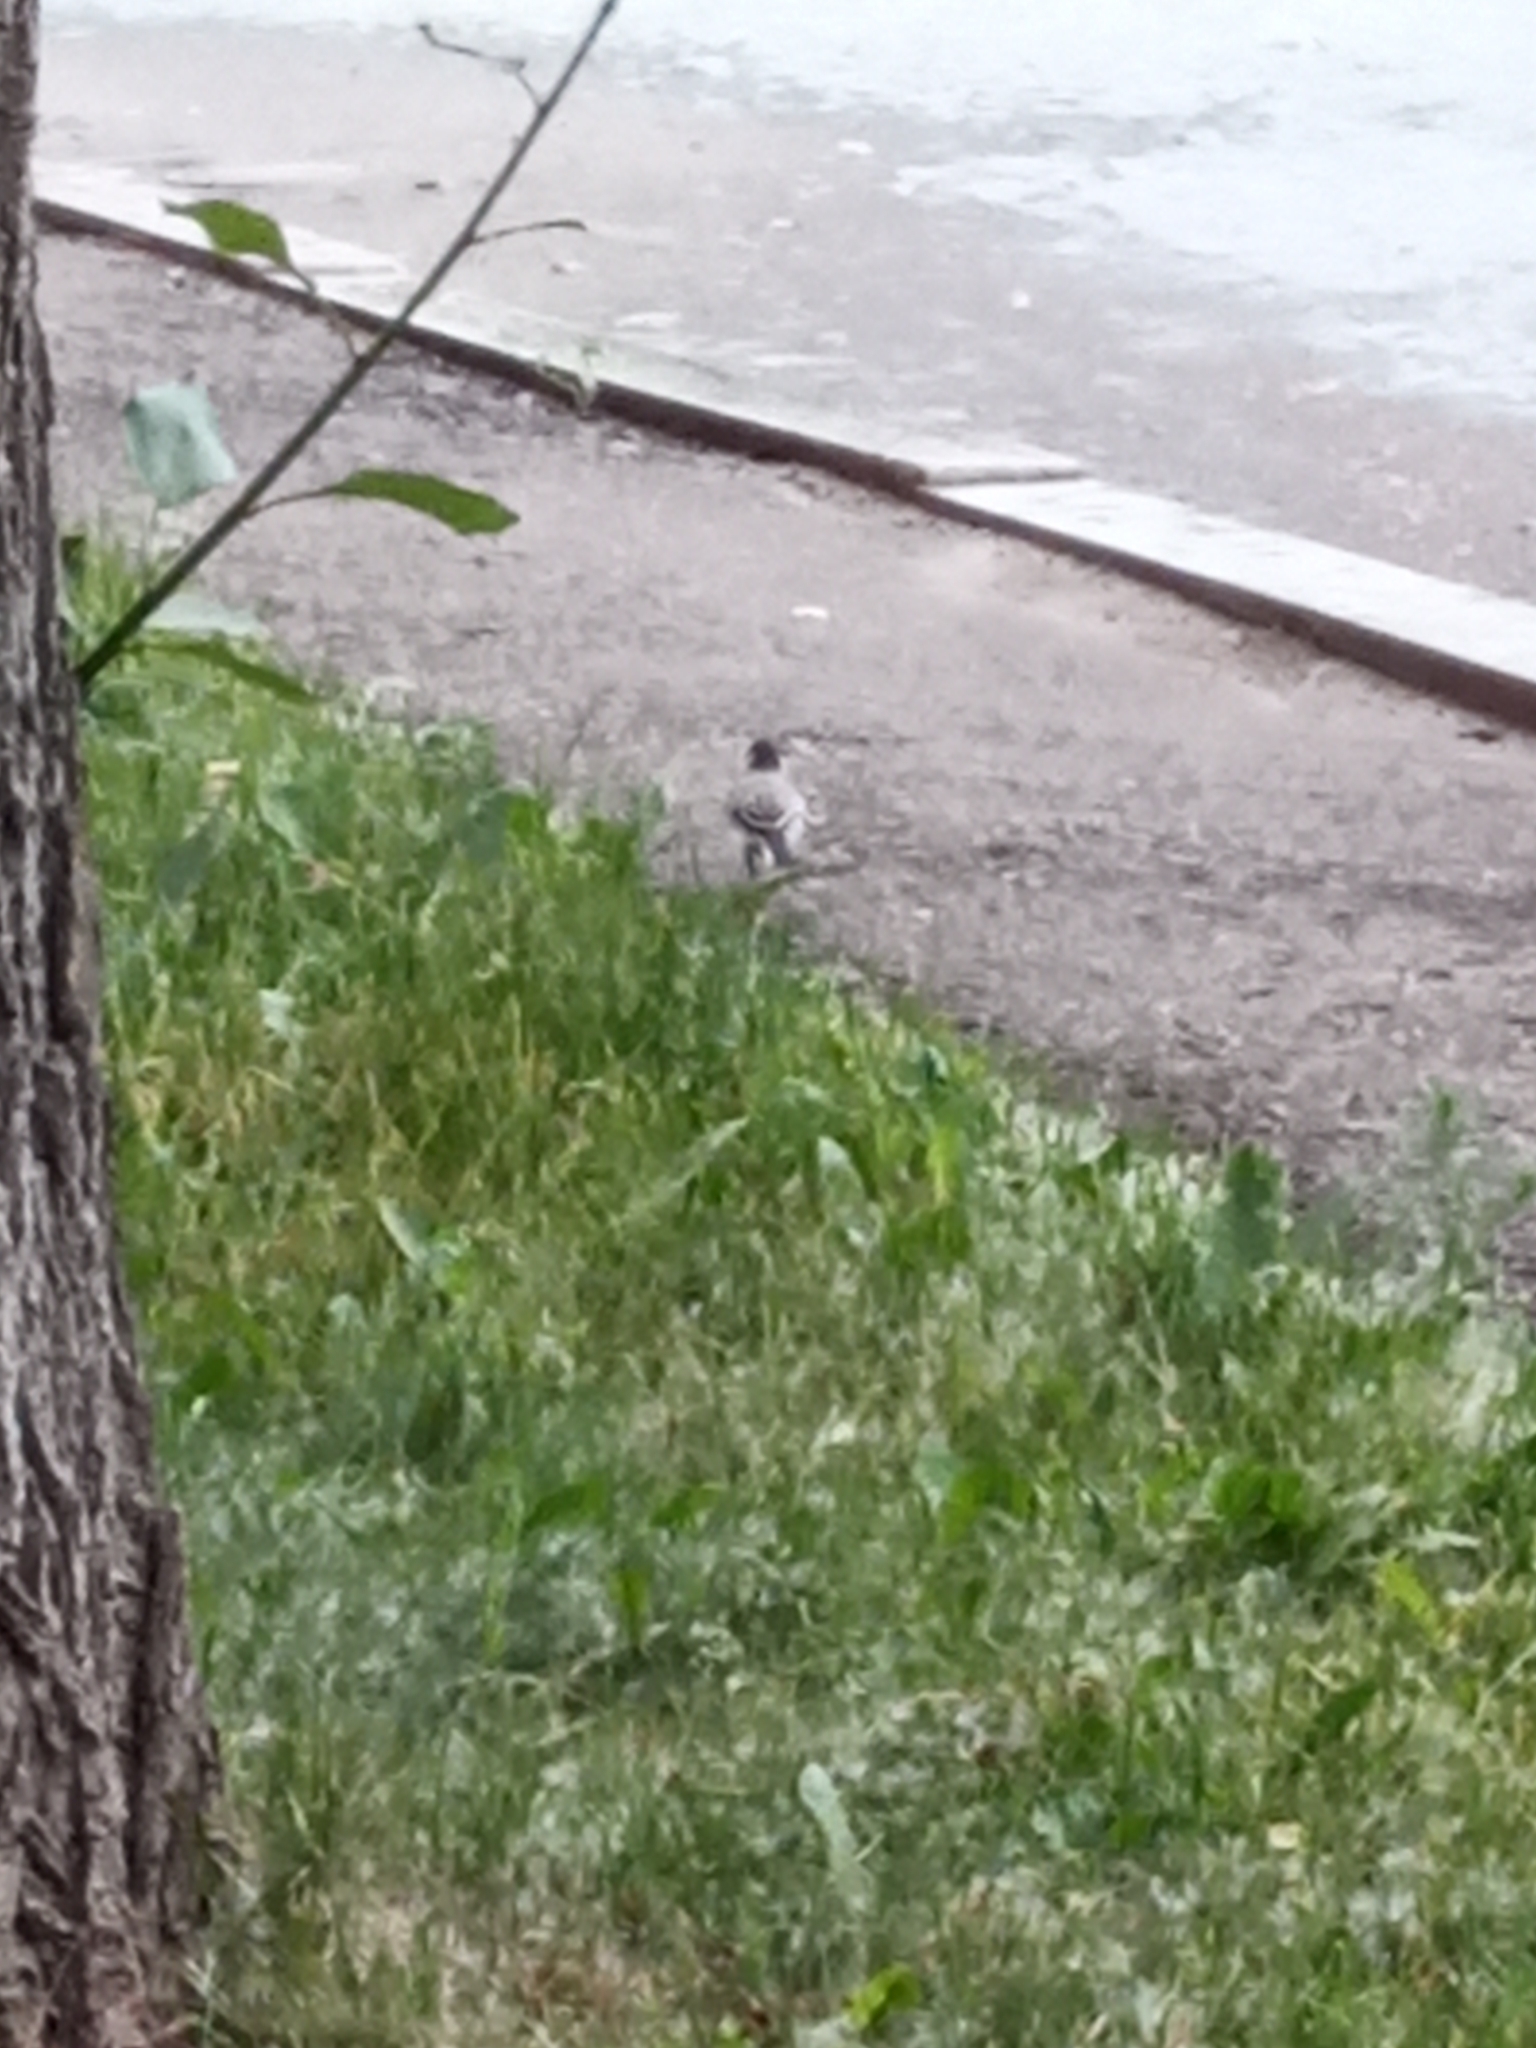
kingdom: Animalia
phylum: Chordata
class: Aves
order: Passeriformes
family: Motacillidae
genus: Motacilla
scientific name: Motacilla alba
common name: White wagtail
